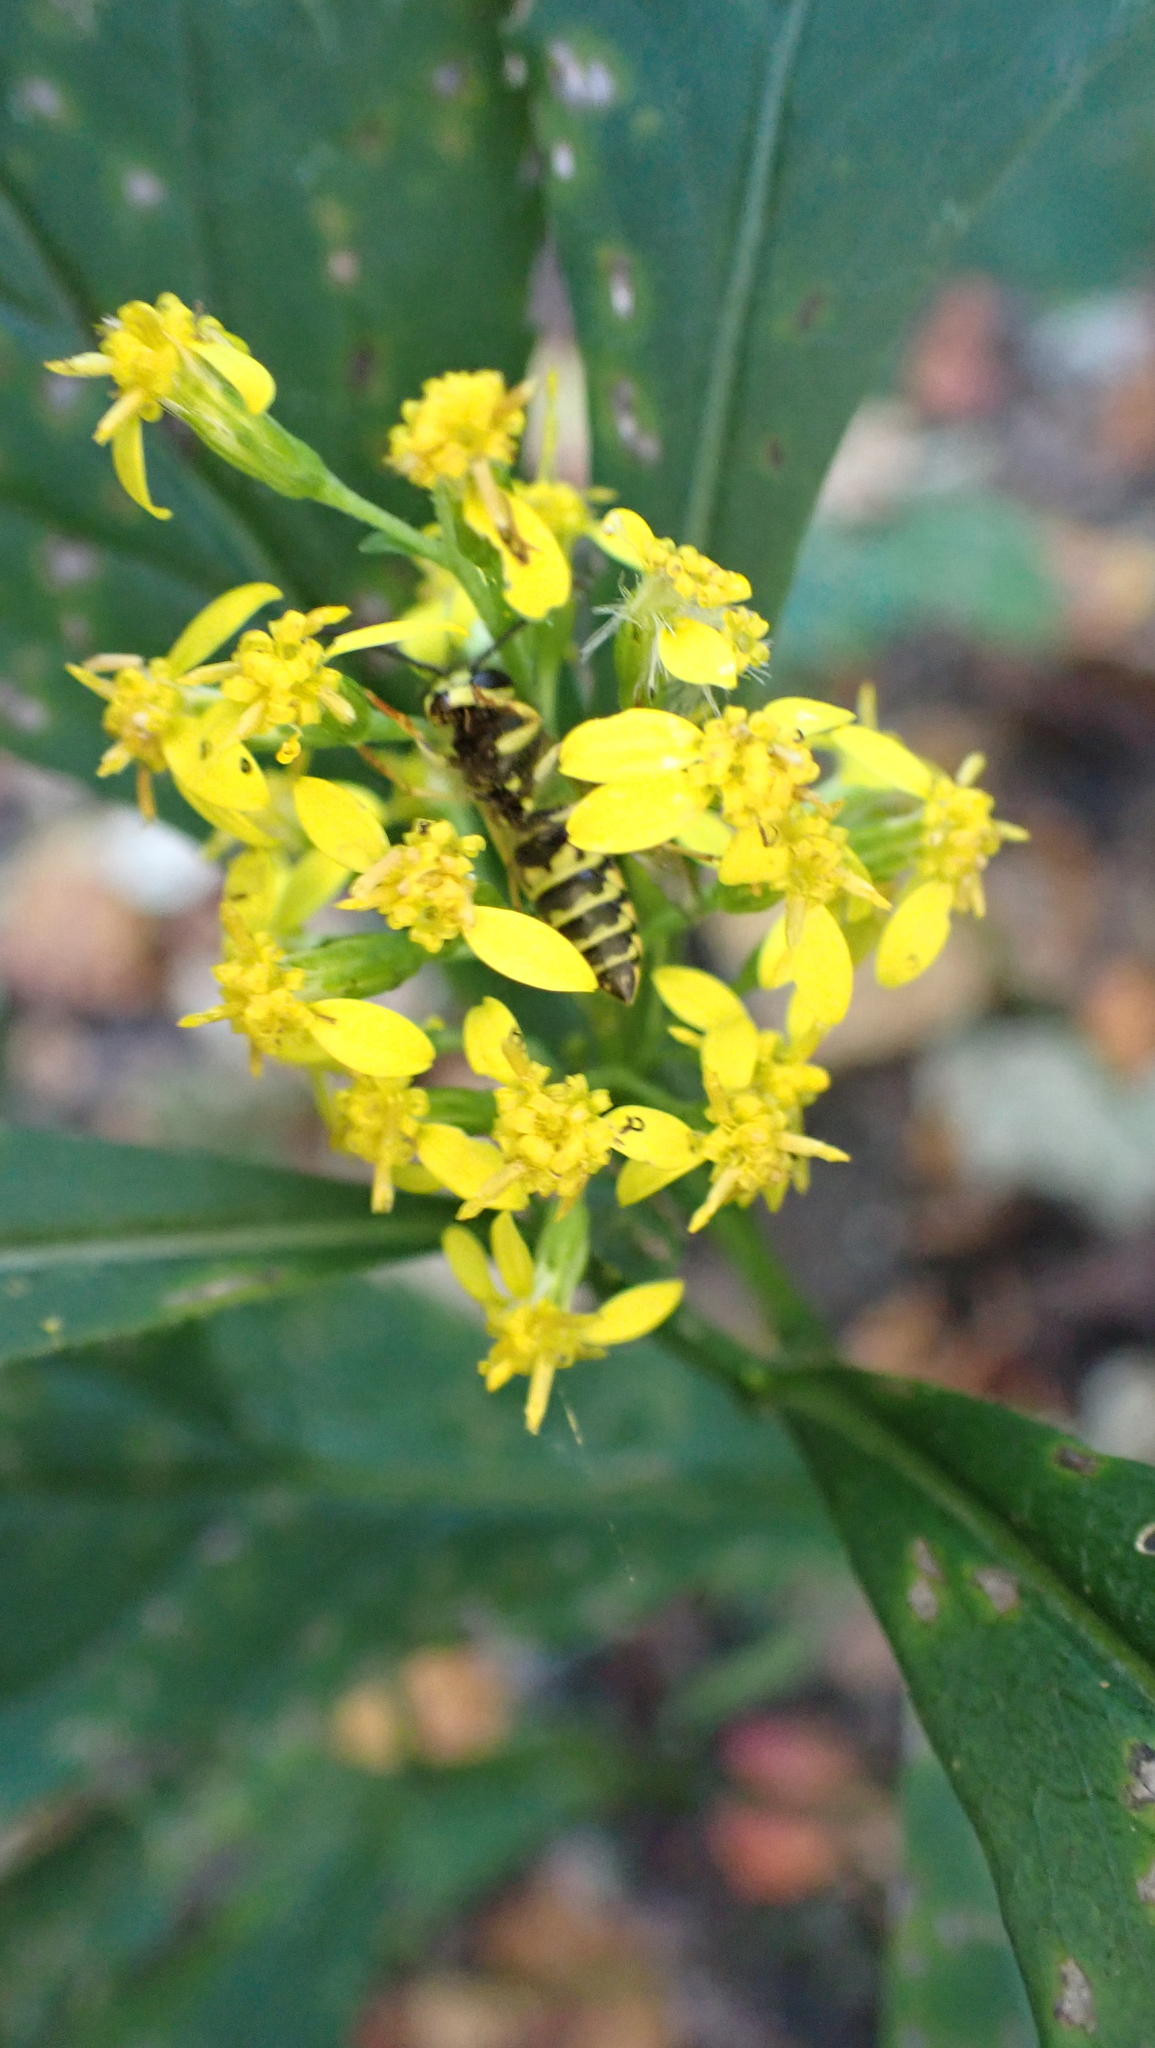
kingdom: Animalia
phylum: Arthropoda
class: Insecta
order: Hymenoptera
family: Vespidae
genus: Vespula
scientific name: Vespula
